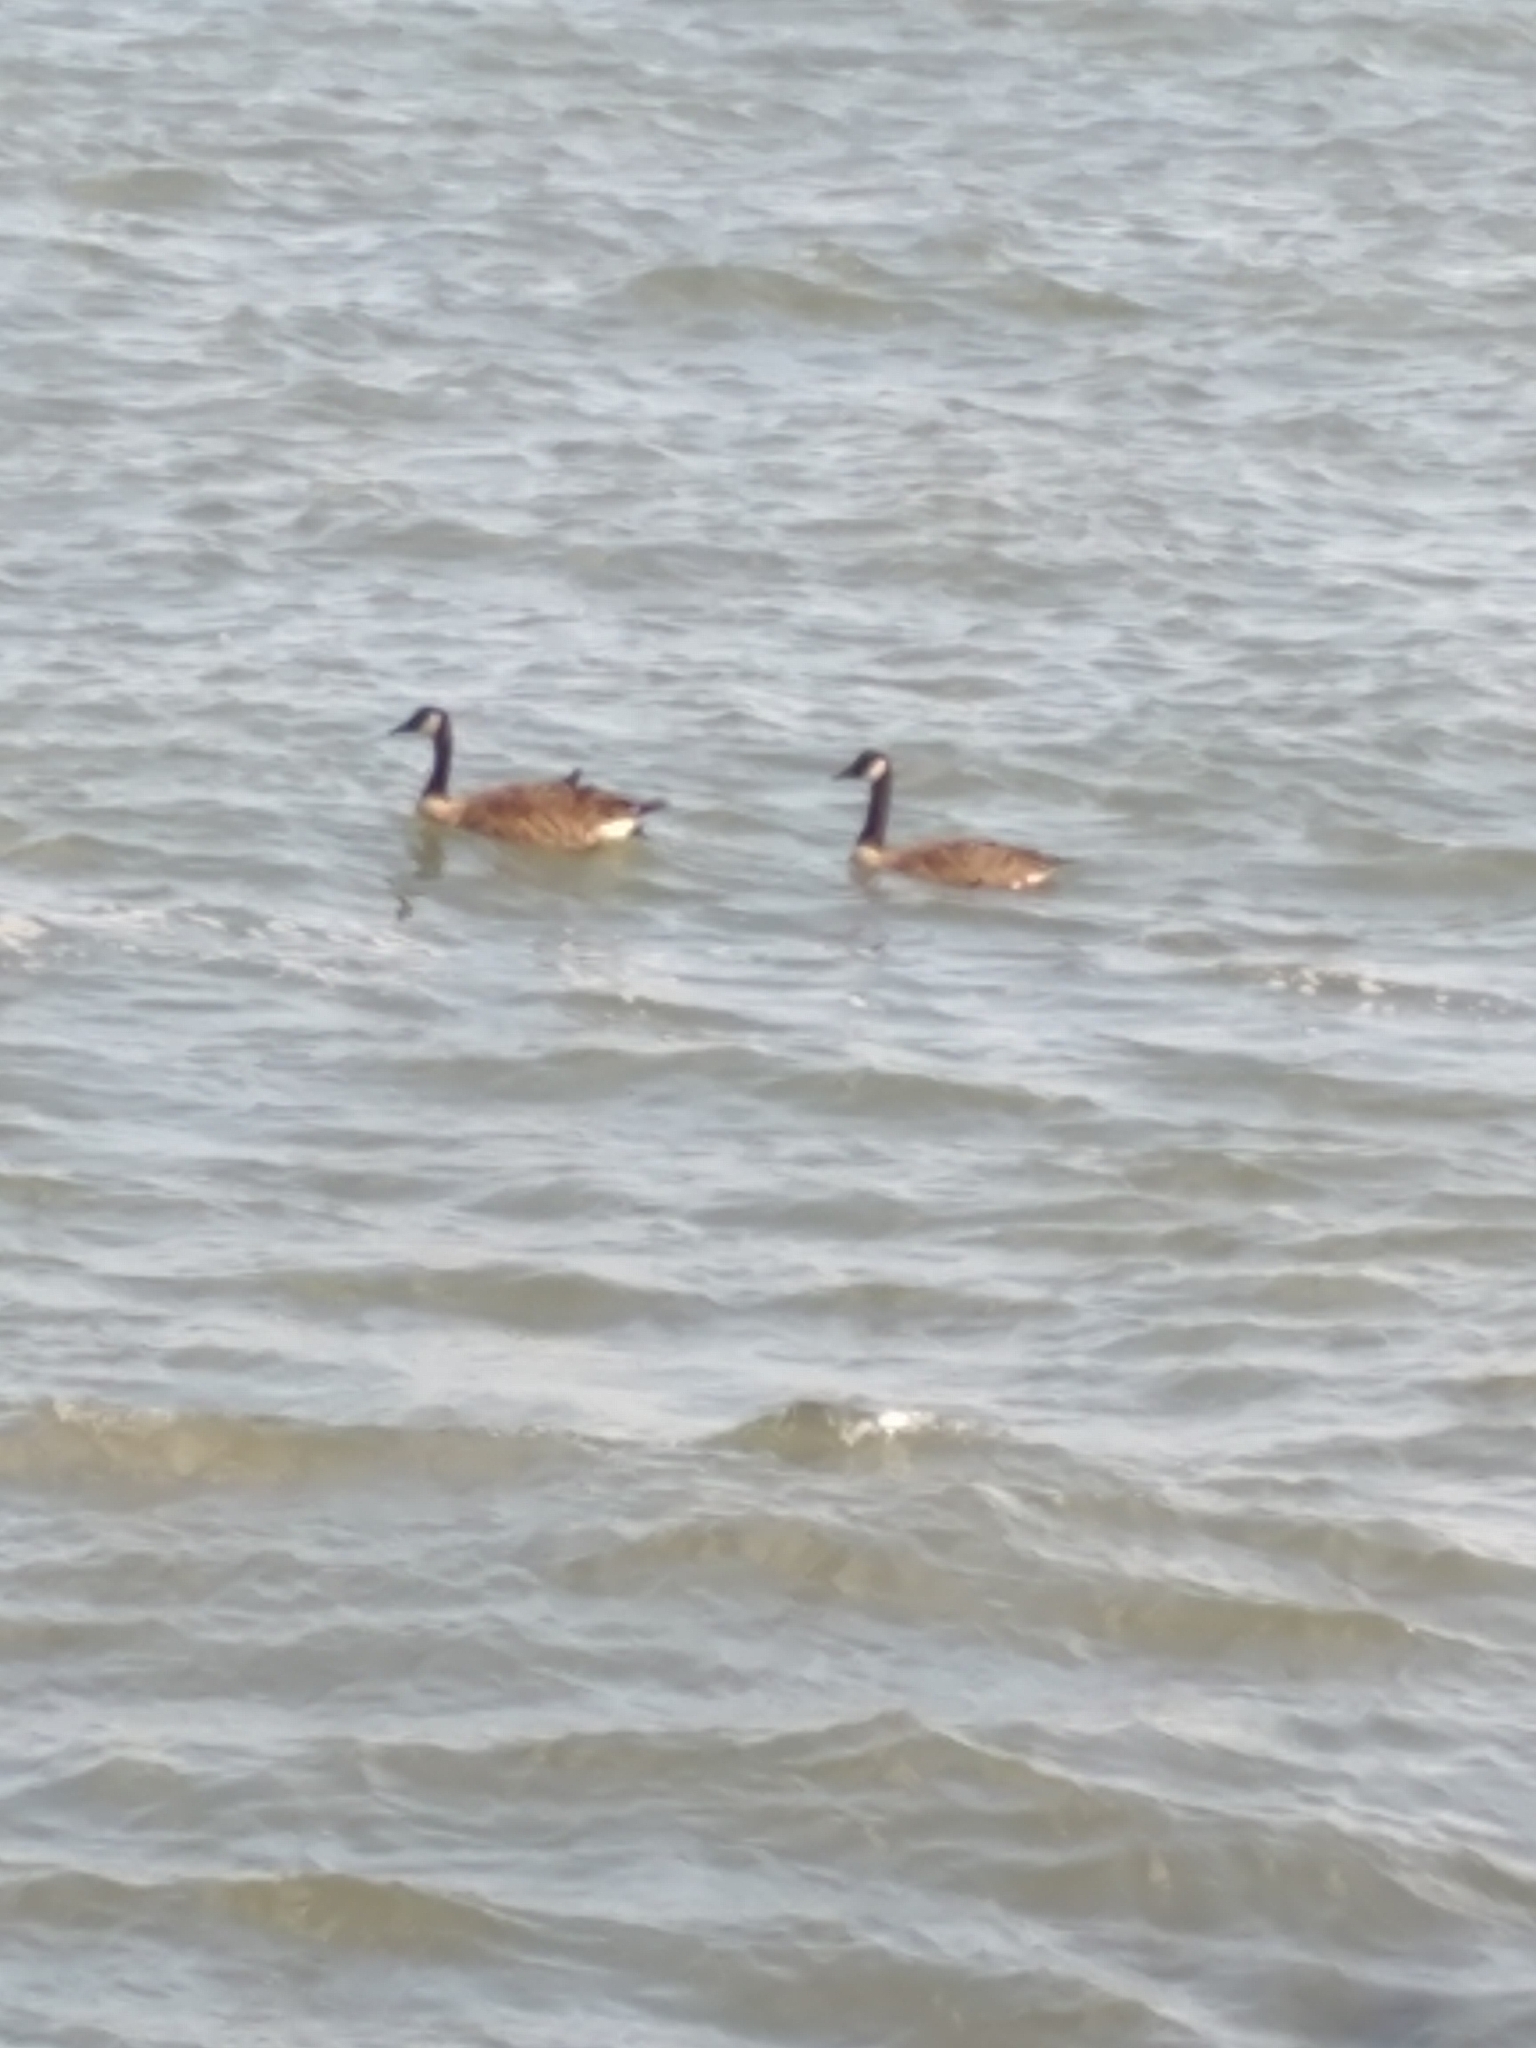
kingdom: Animalia
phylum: Chordata
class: Aves
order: Anseriformes
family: Anatidae
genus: Branta
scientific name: Branta canadensis
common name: Canada goose
